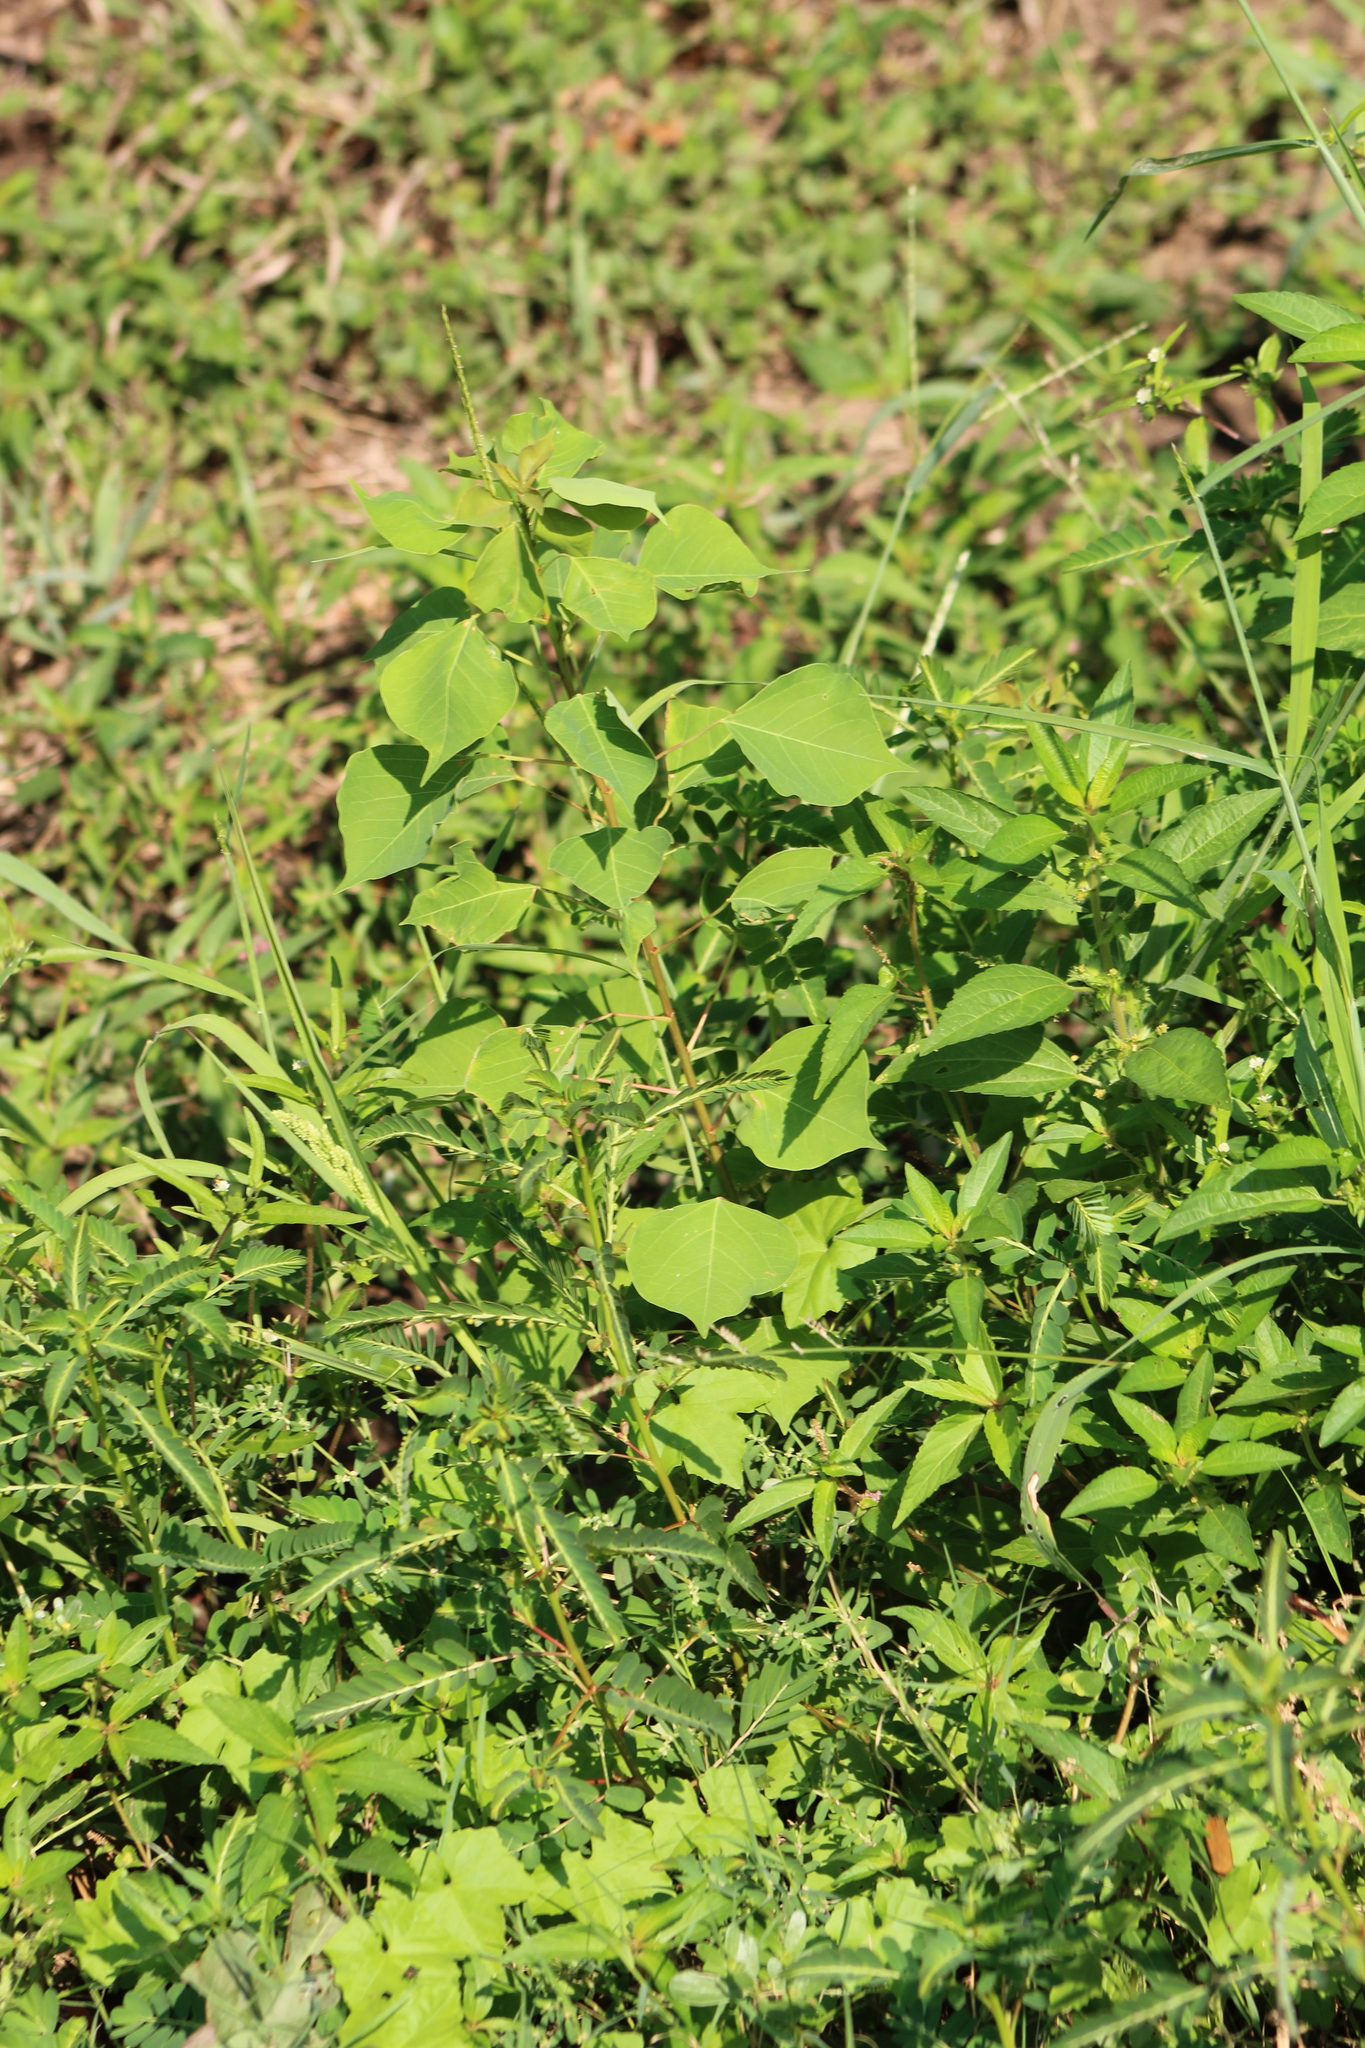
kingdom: Plantae
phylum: Tracheophyta
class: Magnoliopsida
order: Malpighiales
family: Euphorbiaceae
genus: Triadica
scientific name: Triadica sebifera
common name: Chinese tallow
